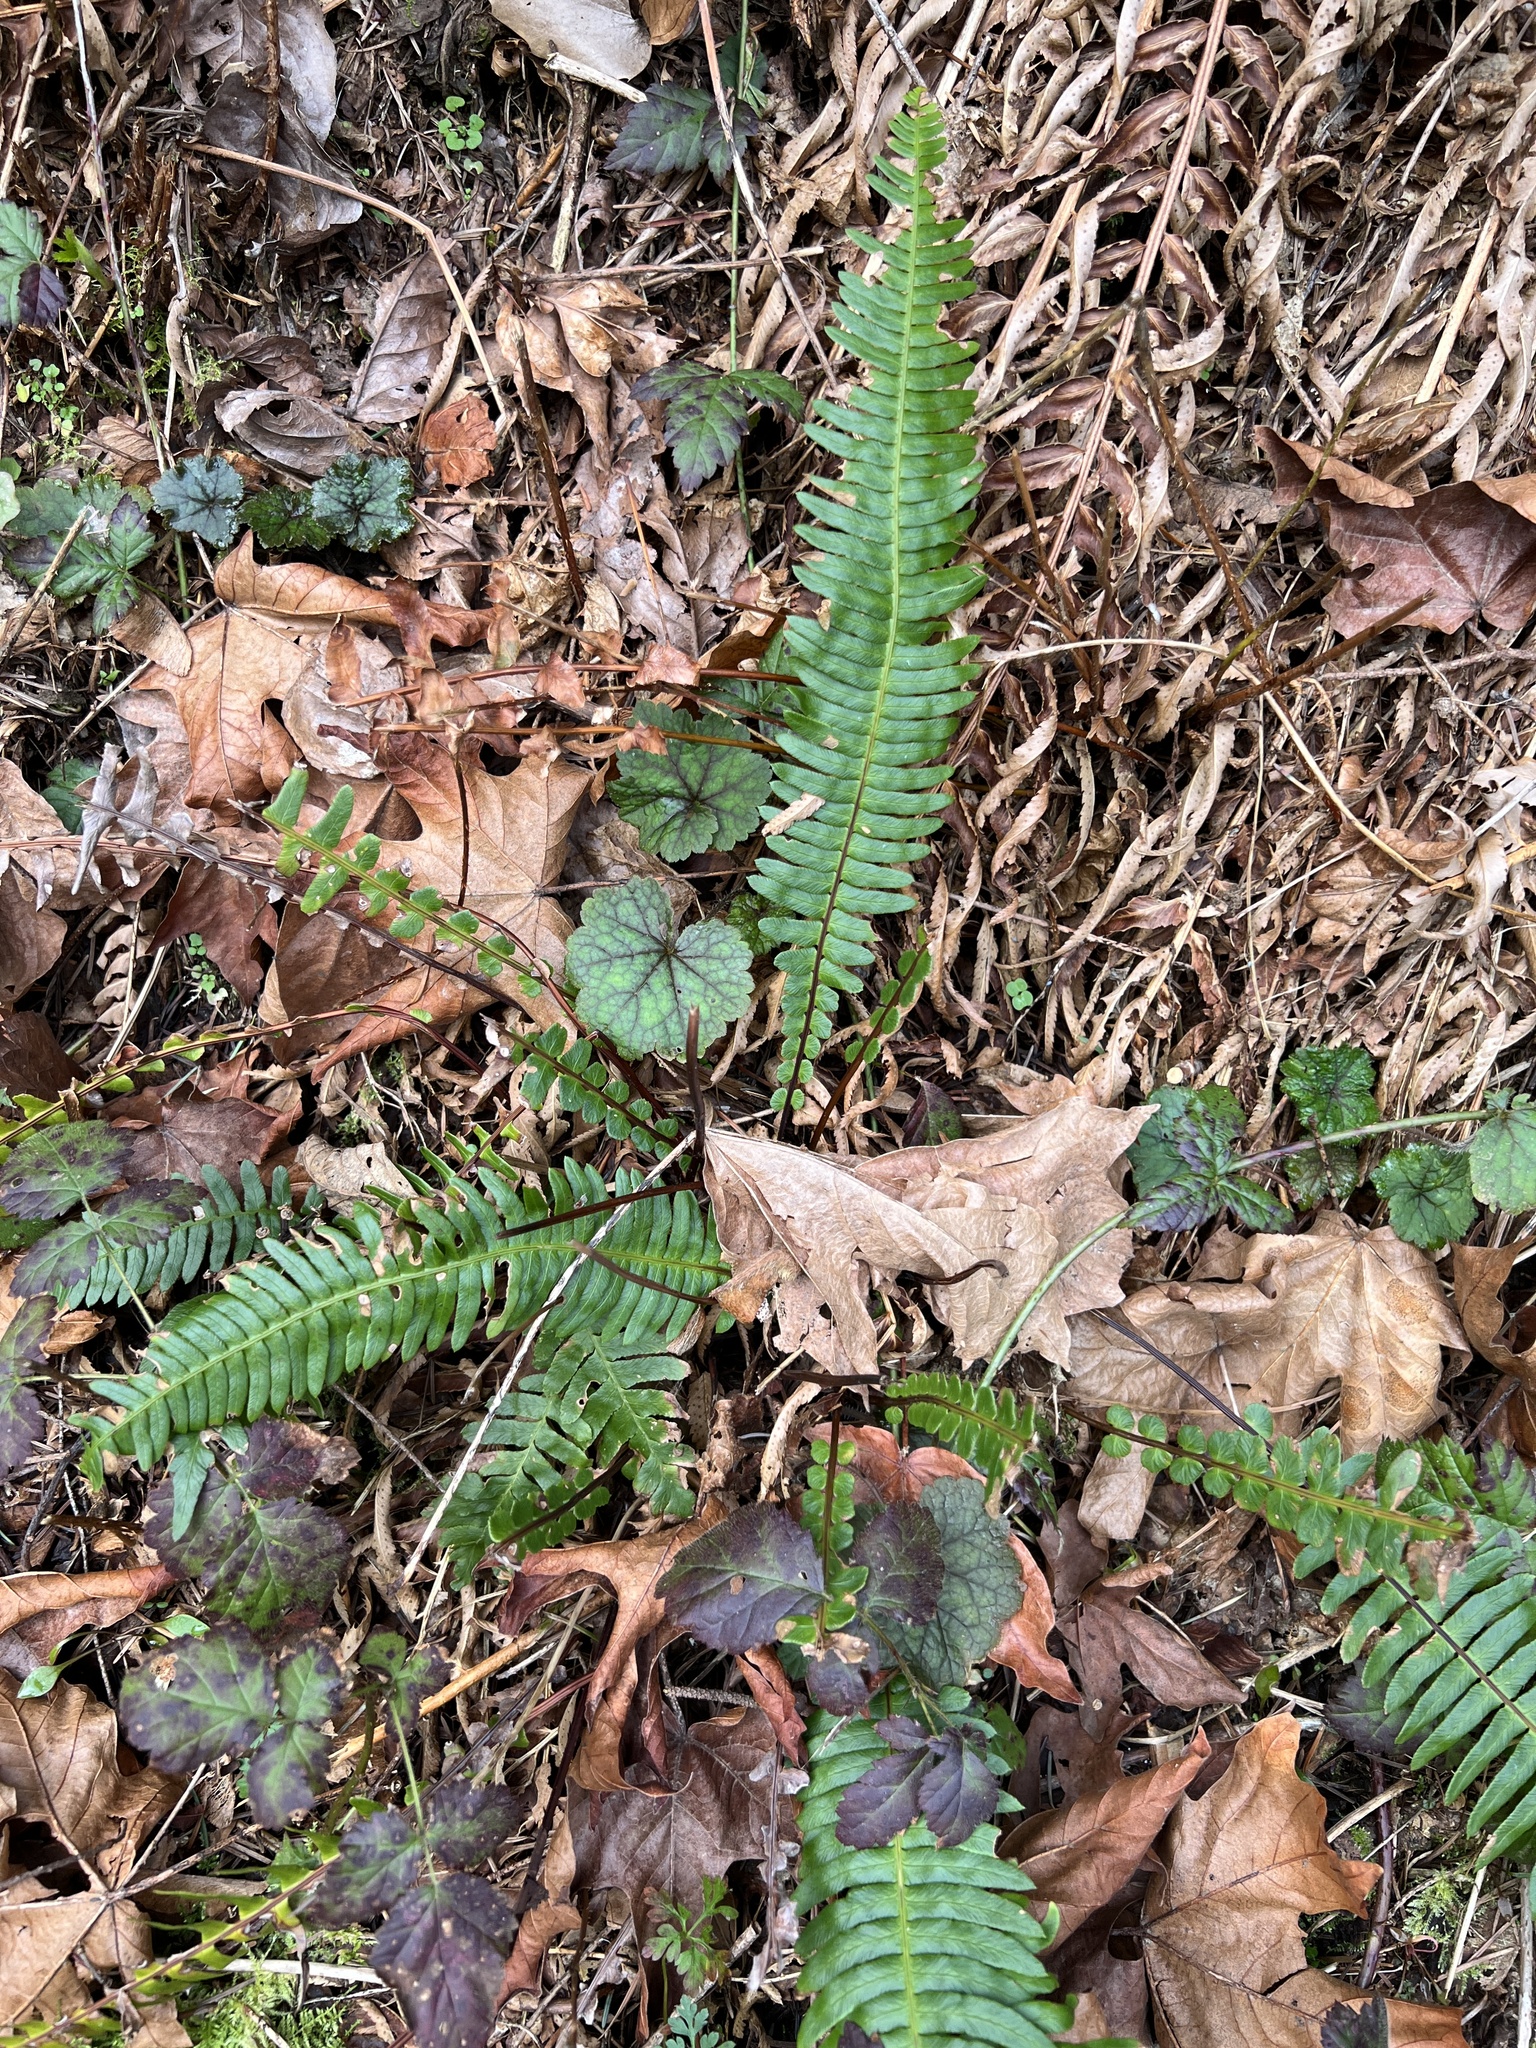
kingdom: Plantae
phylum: Tracheophyta
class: Polypodiopsida
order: Polypodiales
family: Blechnaceae
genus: Struthiopteris
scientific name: Struthiopteris spicant
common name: Deer fern
